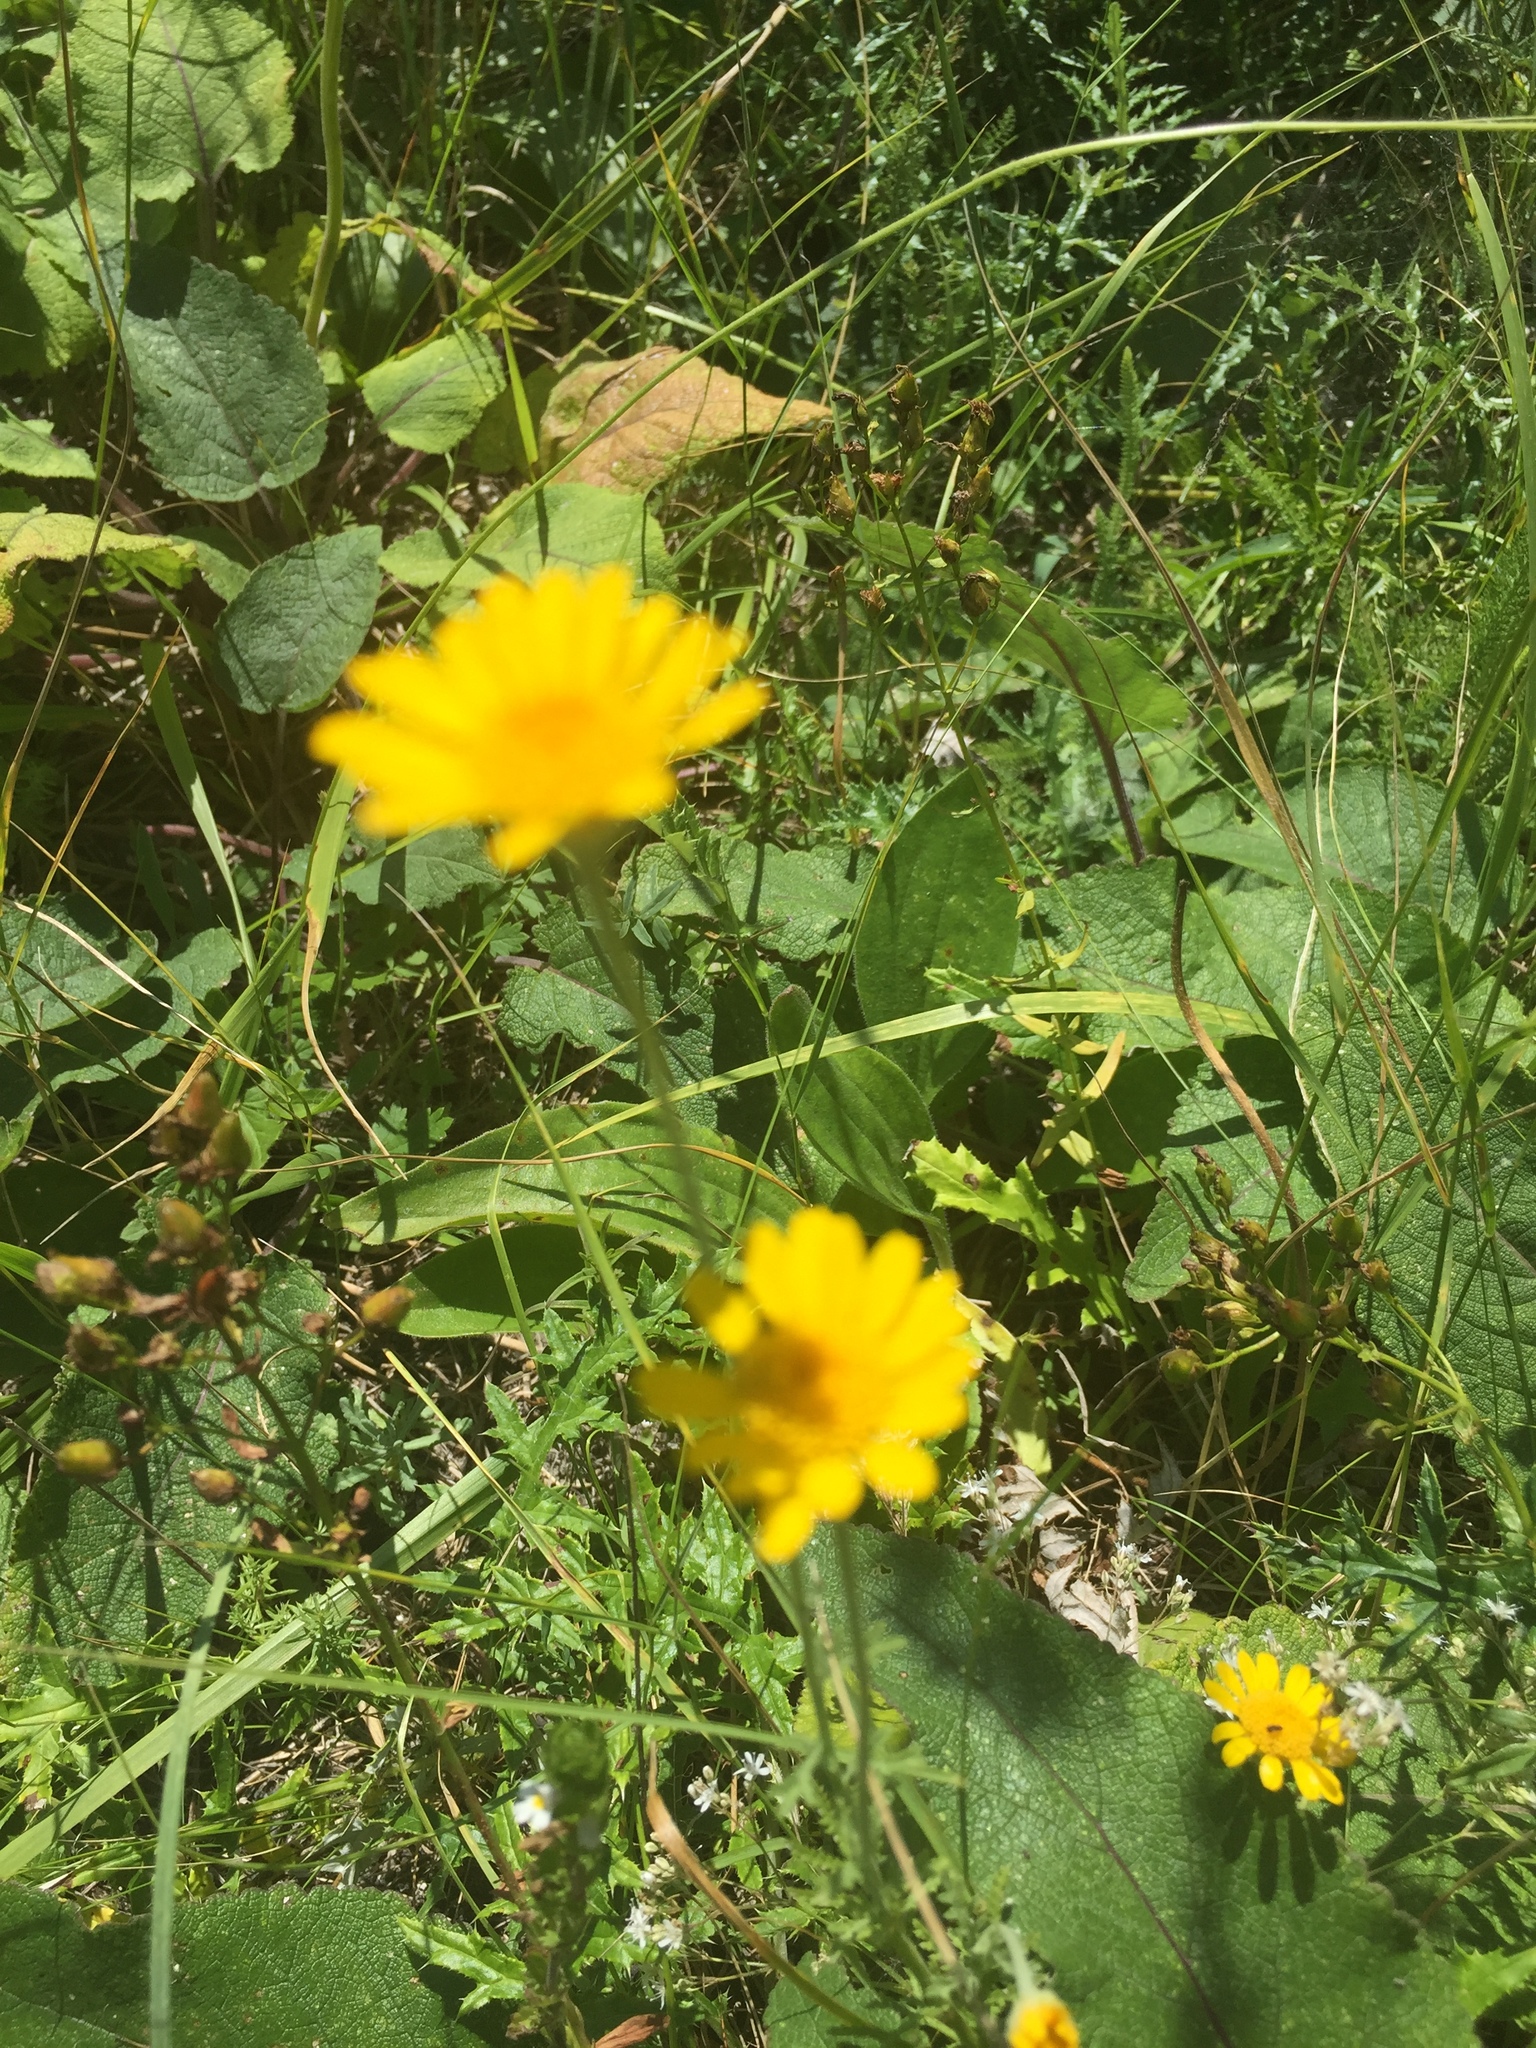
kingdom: Plantae
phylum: Tracheophyta
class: Magnoliopsida
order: Asterales
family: Asteraceae
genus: Cota
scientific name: Cota tinctoria
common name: Golden chamomile
